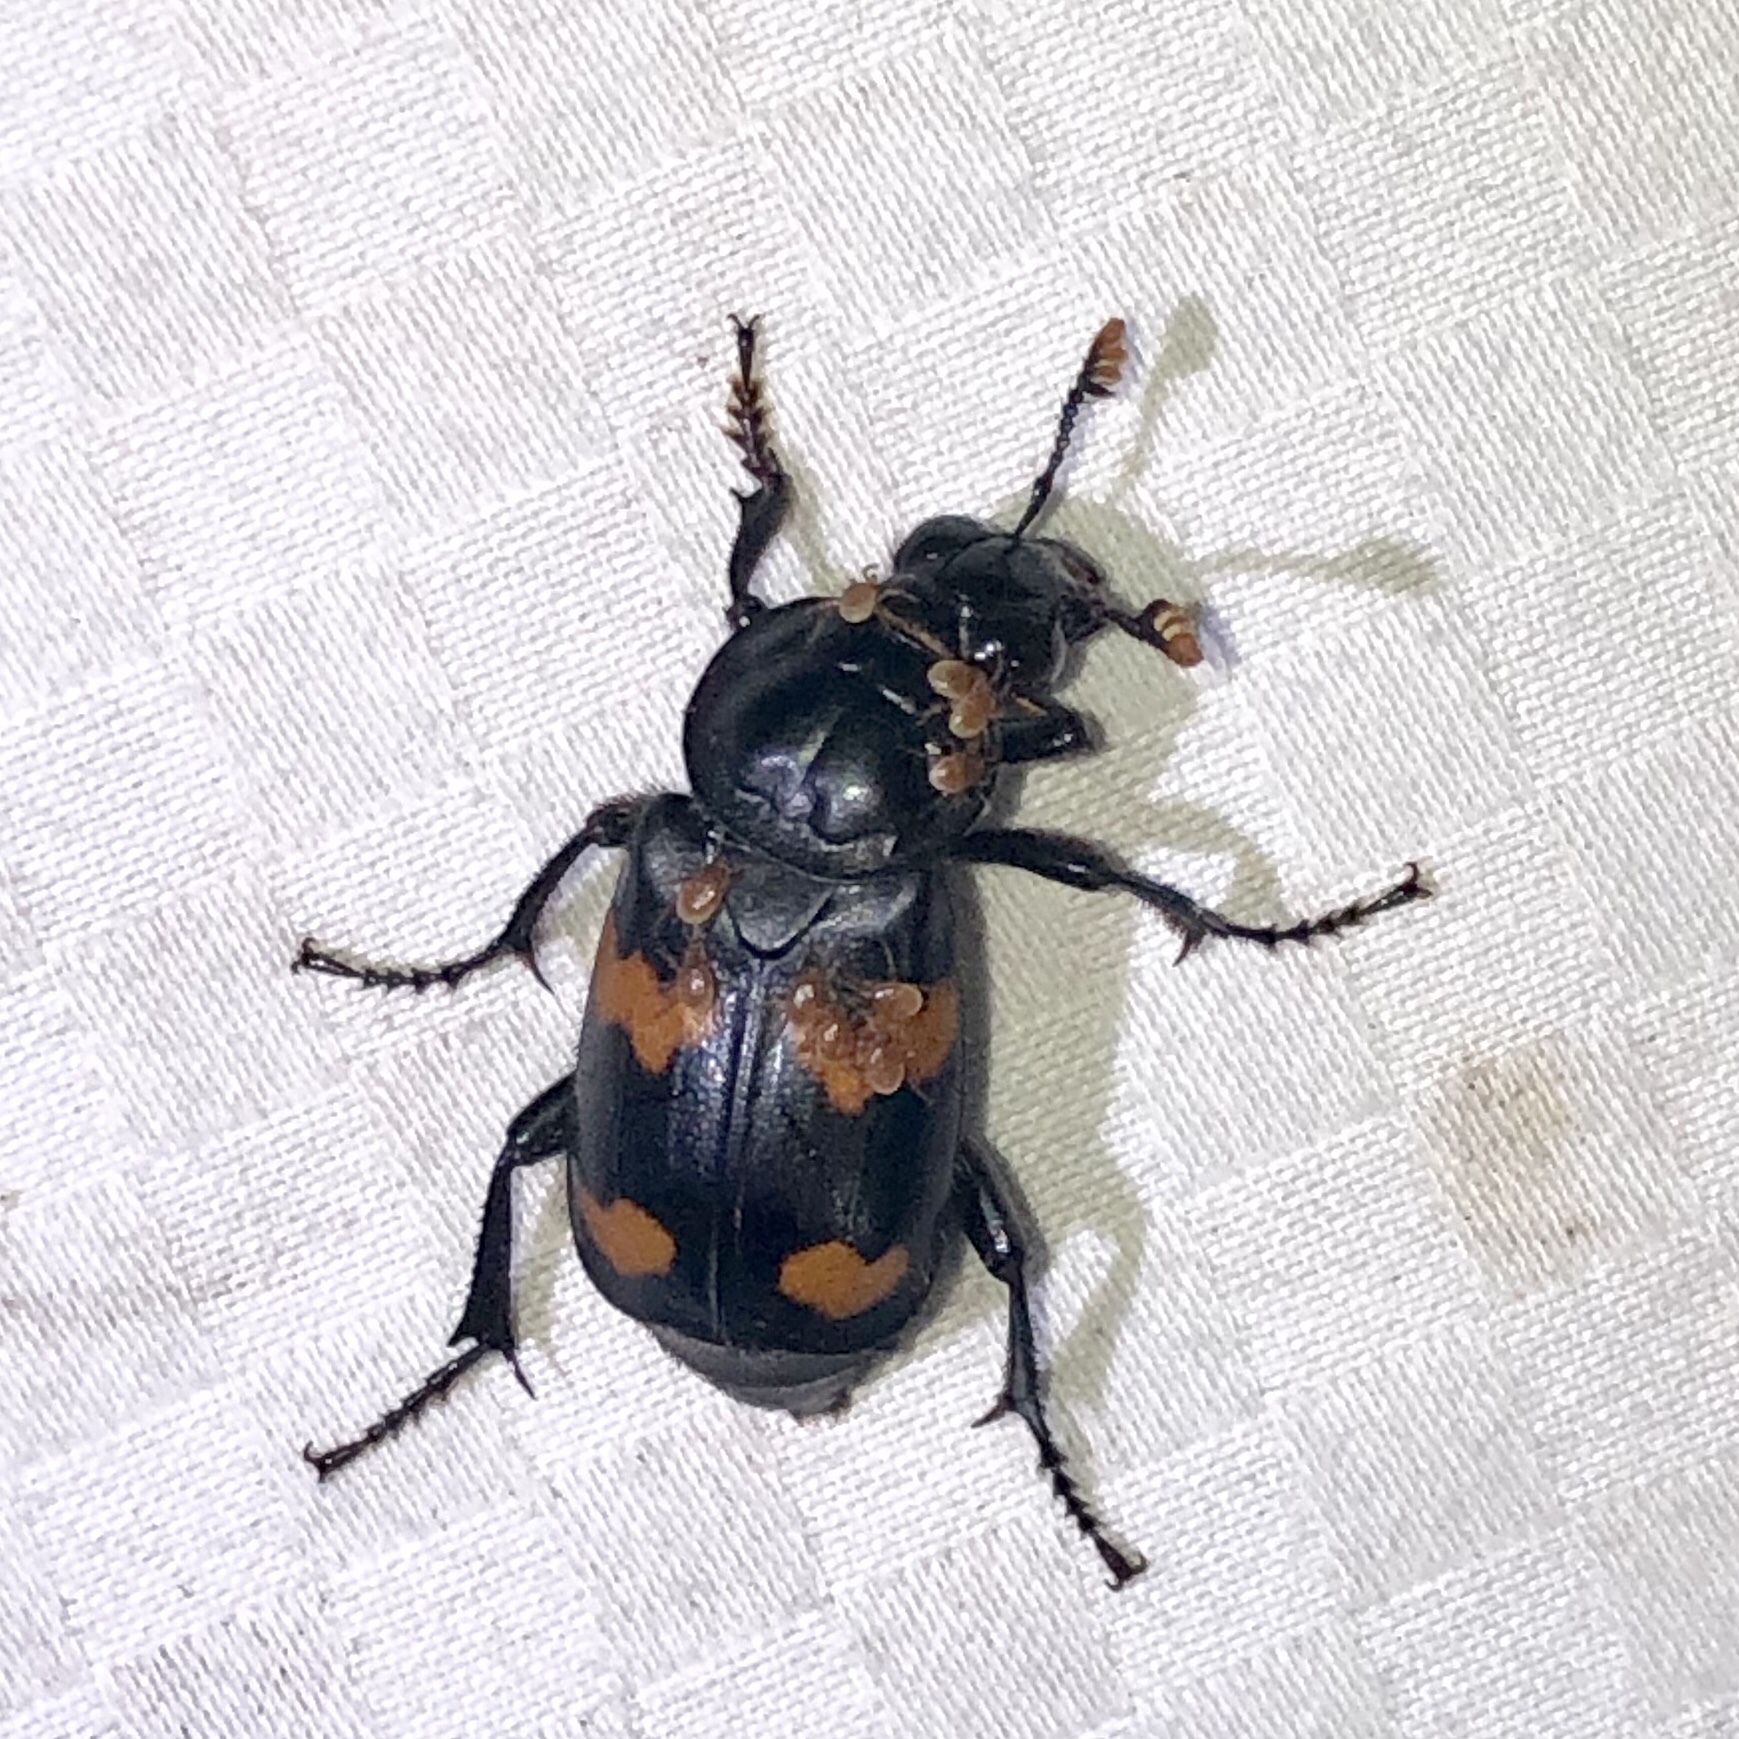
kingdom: Animalia
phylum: Arthropoda
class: Insecta
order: Coleoptera
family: Staphylinidae
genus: Nicrophorus
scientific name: Nicrophorus orbicollis
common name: Roundneck sexton beetle
